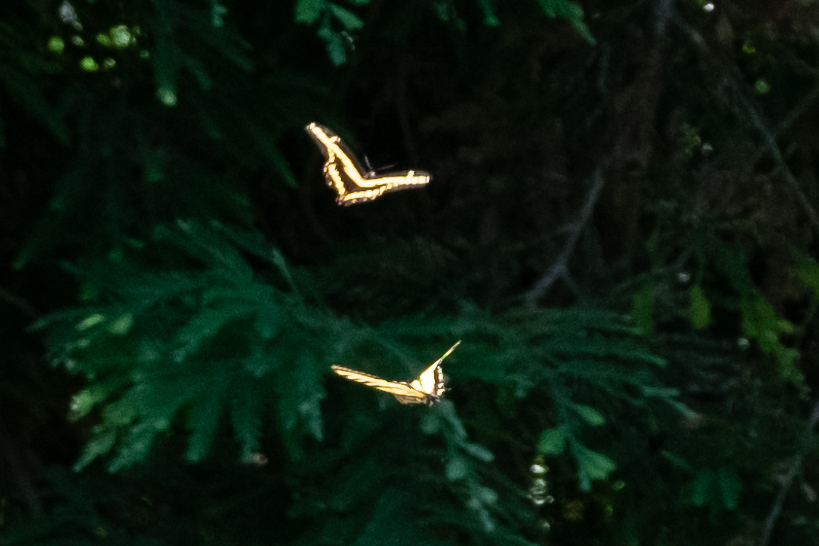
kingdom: Animalia
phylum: Arthropoda
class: Insecta
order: Lepidoptera
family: Papilionidae
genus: Papilio
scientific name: Papilio rutulus
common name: Western tiger swallowtail
